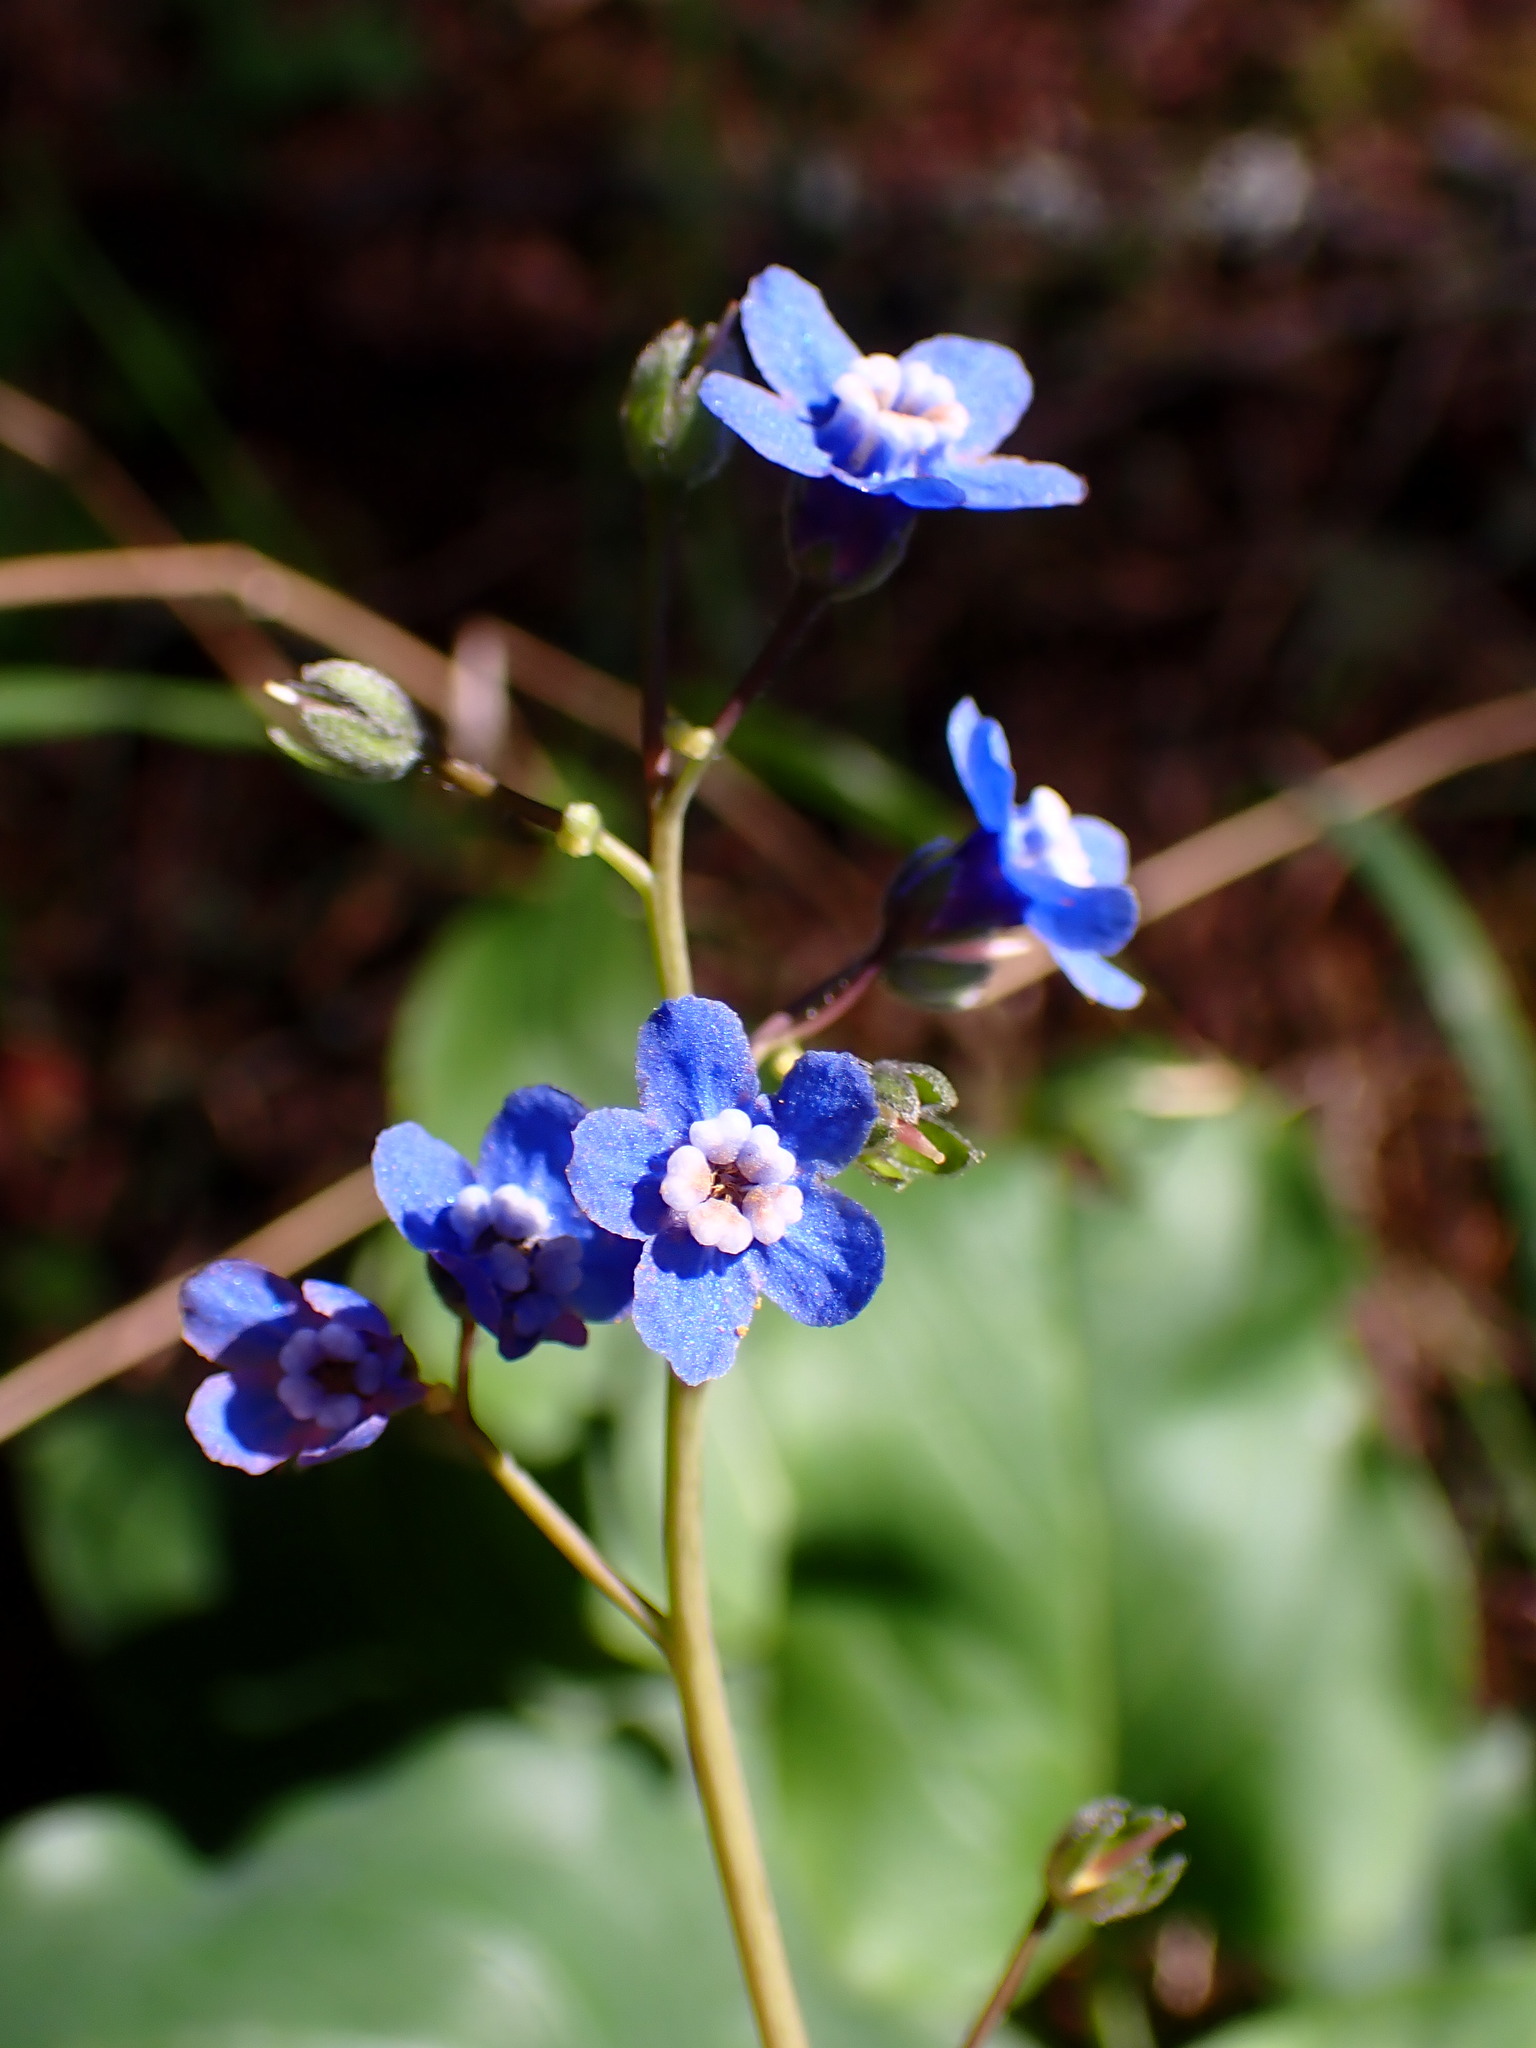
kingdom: Plantae
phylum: Tracheophyta
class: Magnoliopsida
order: Boraginales
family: Boraginaceae
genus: Adelinia
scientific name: Adelinia grande
